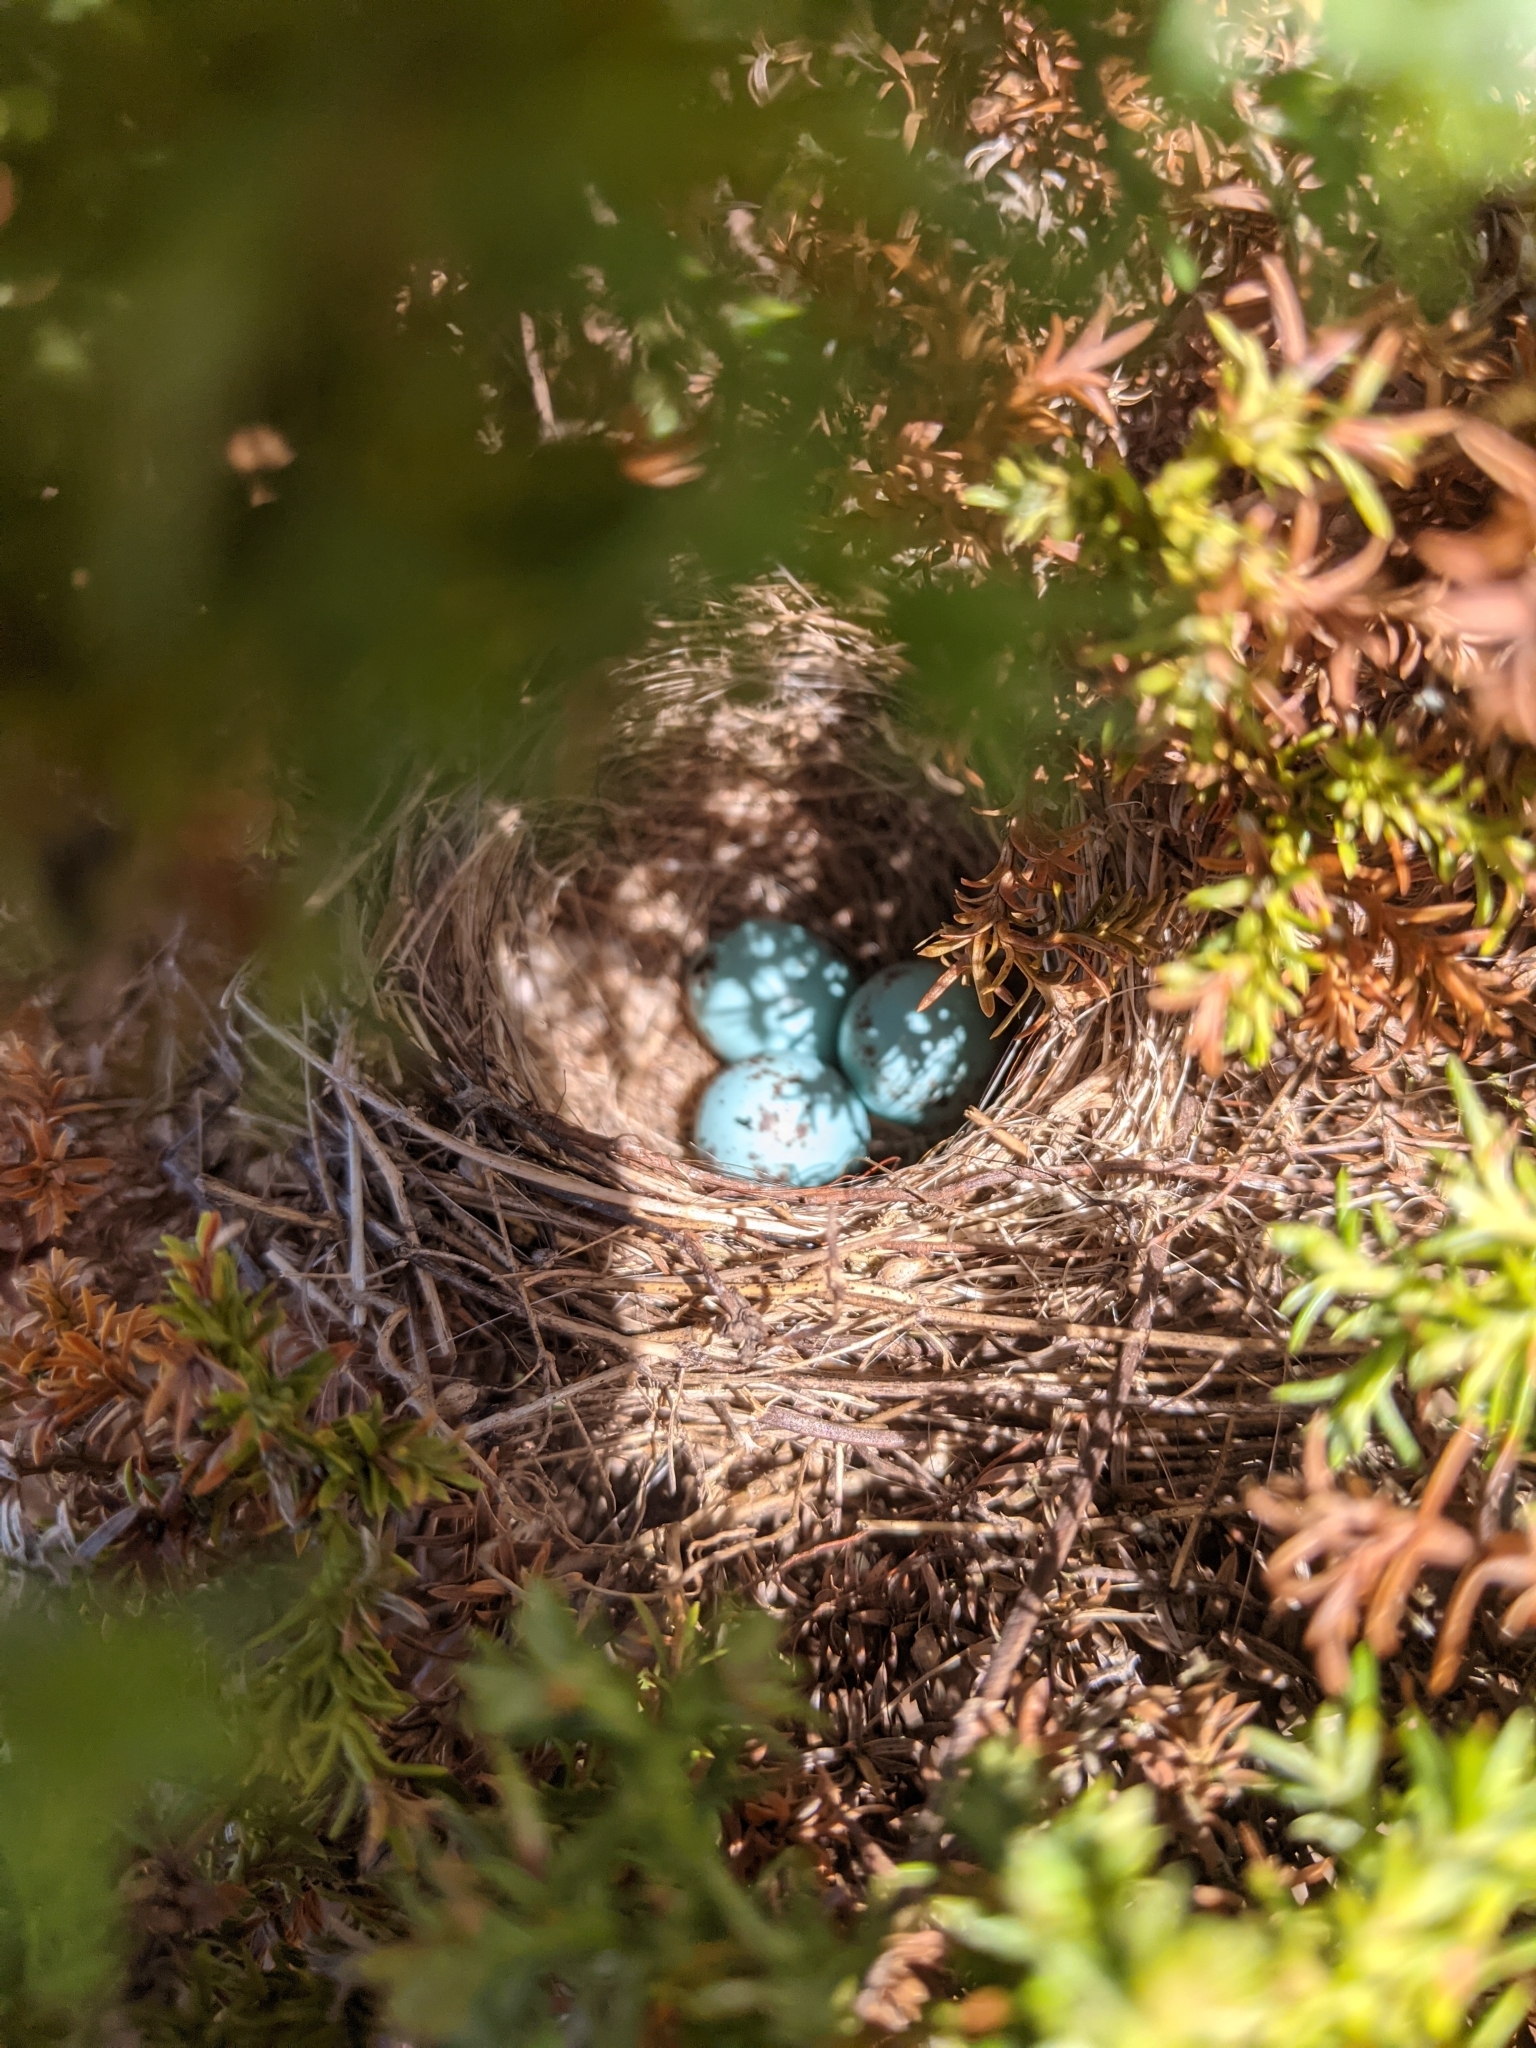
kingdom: Animalia
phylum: Chordata
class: Aves
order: Passeriformes
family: Passerellidae
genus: Spizella
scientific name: Spizella passerina
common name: Chipping sparrow
